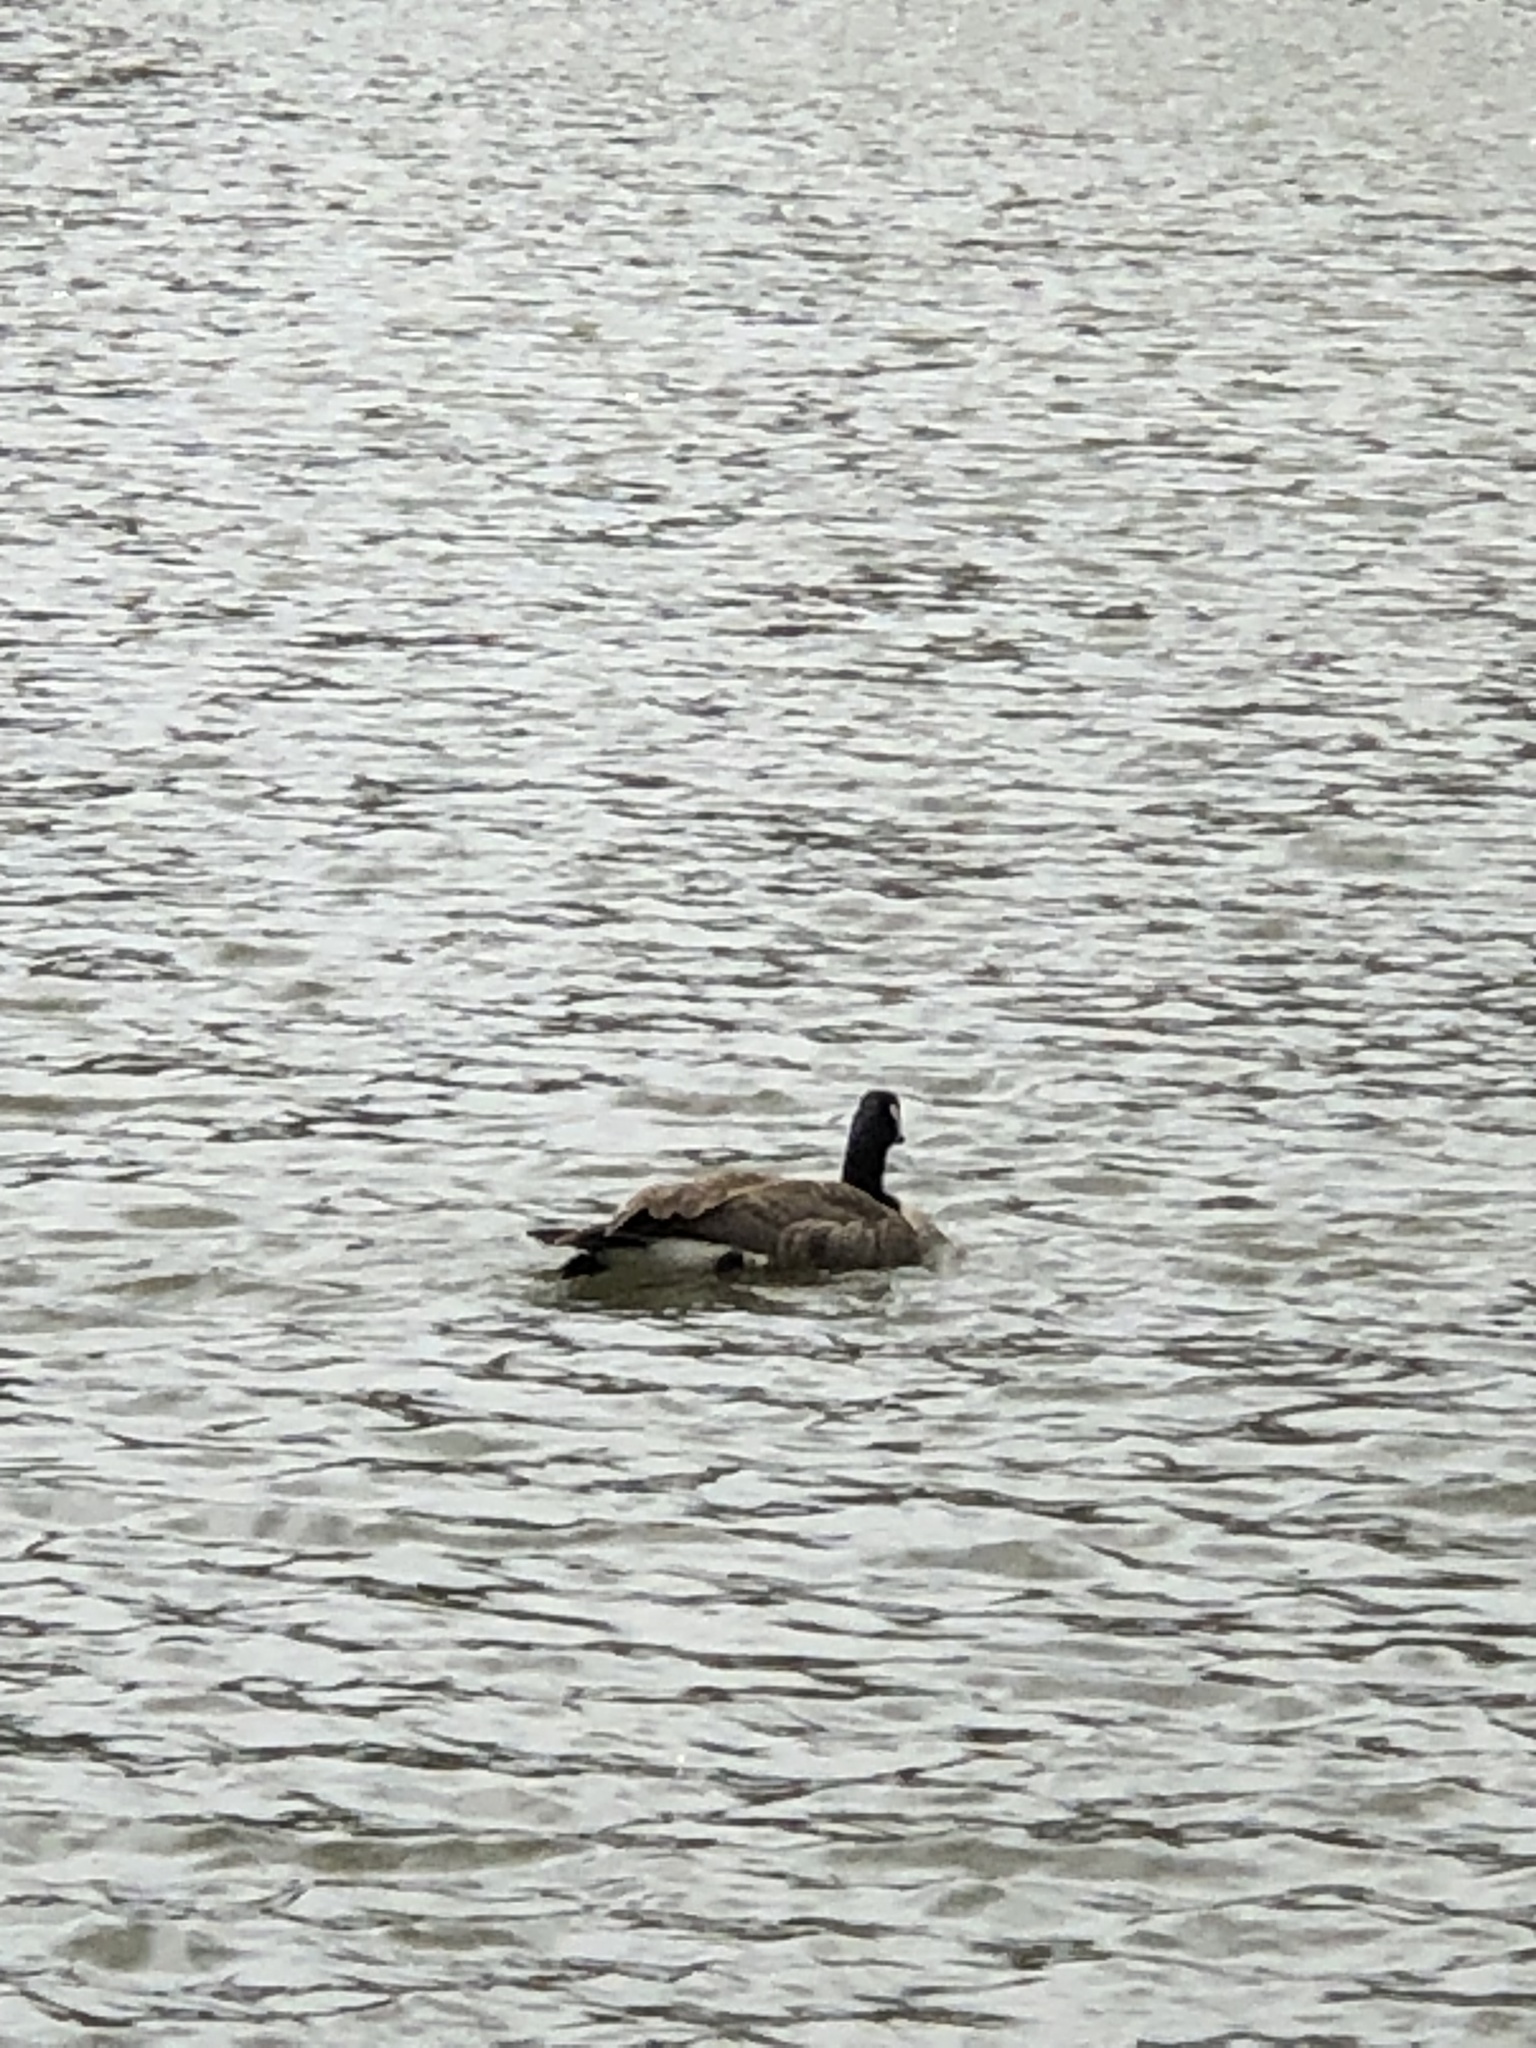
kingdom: Animalia
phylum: Chordata
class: Aves
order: Anseriformes
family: Anatidae
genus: Branta
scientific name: Branta canadensis
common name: Canada goose
